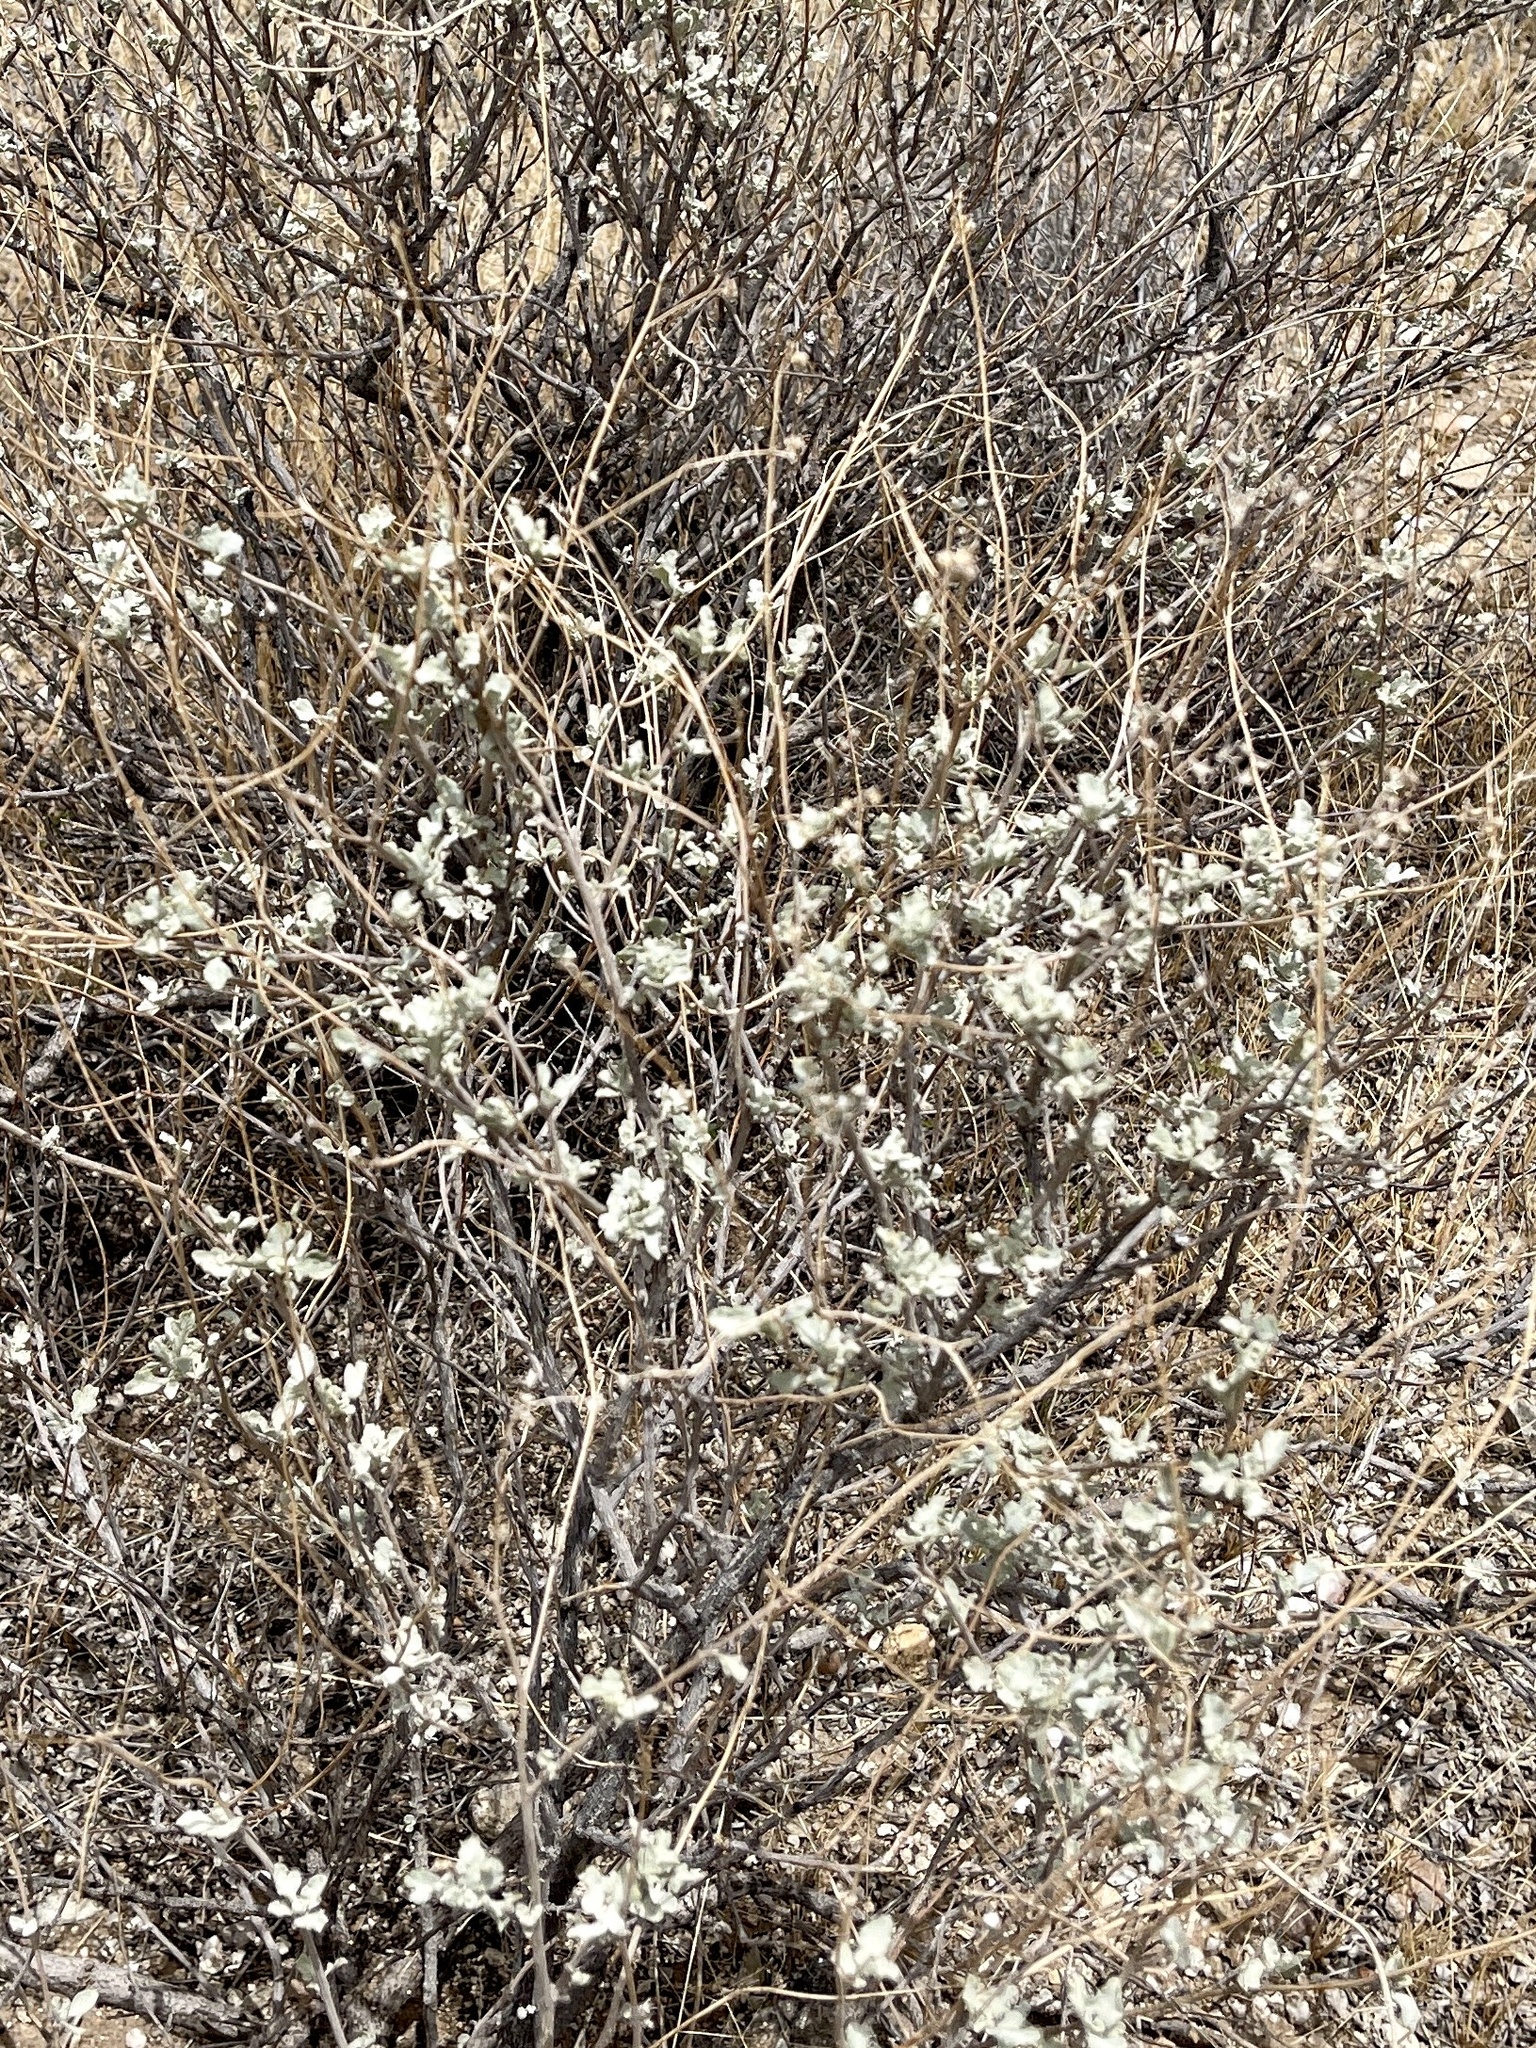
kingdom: Plantae
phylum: Tracheophyta
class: Magnoliopsida
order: Asterales
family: Asteraceae
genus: Parthenium
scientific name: Parthenium incanum
